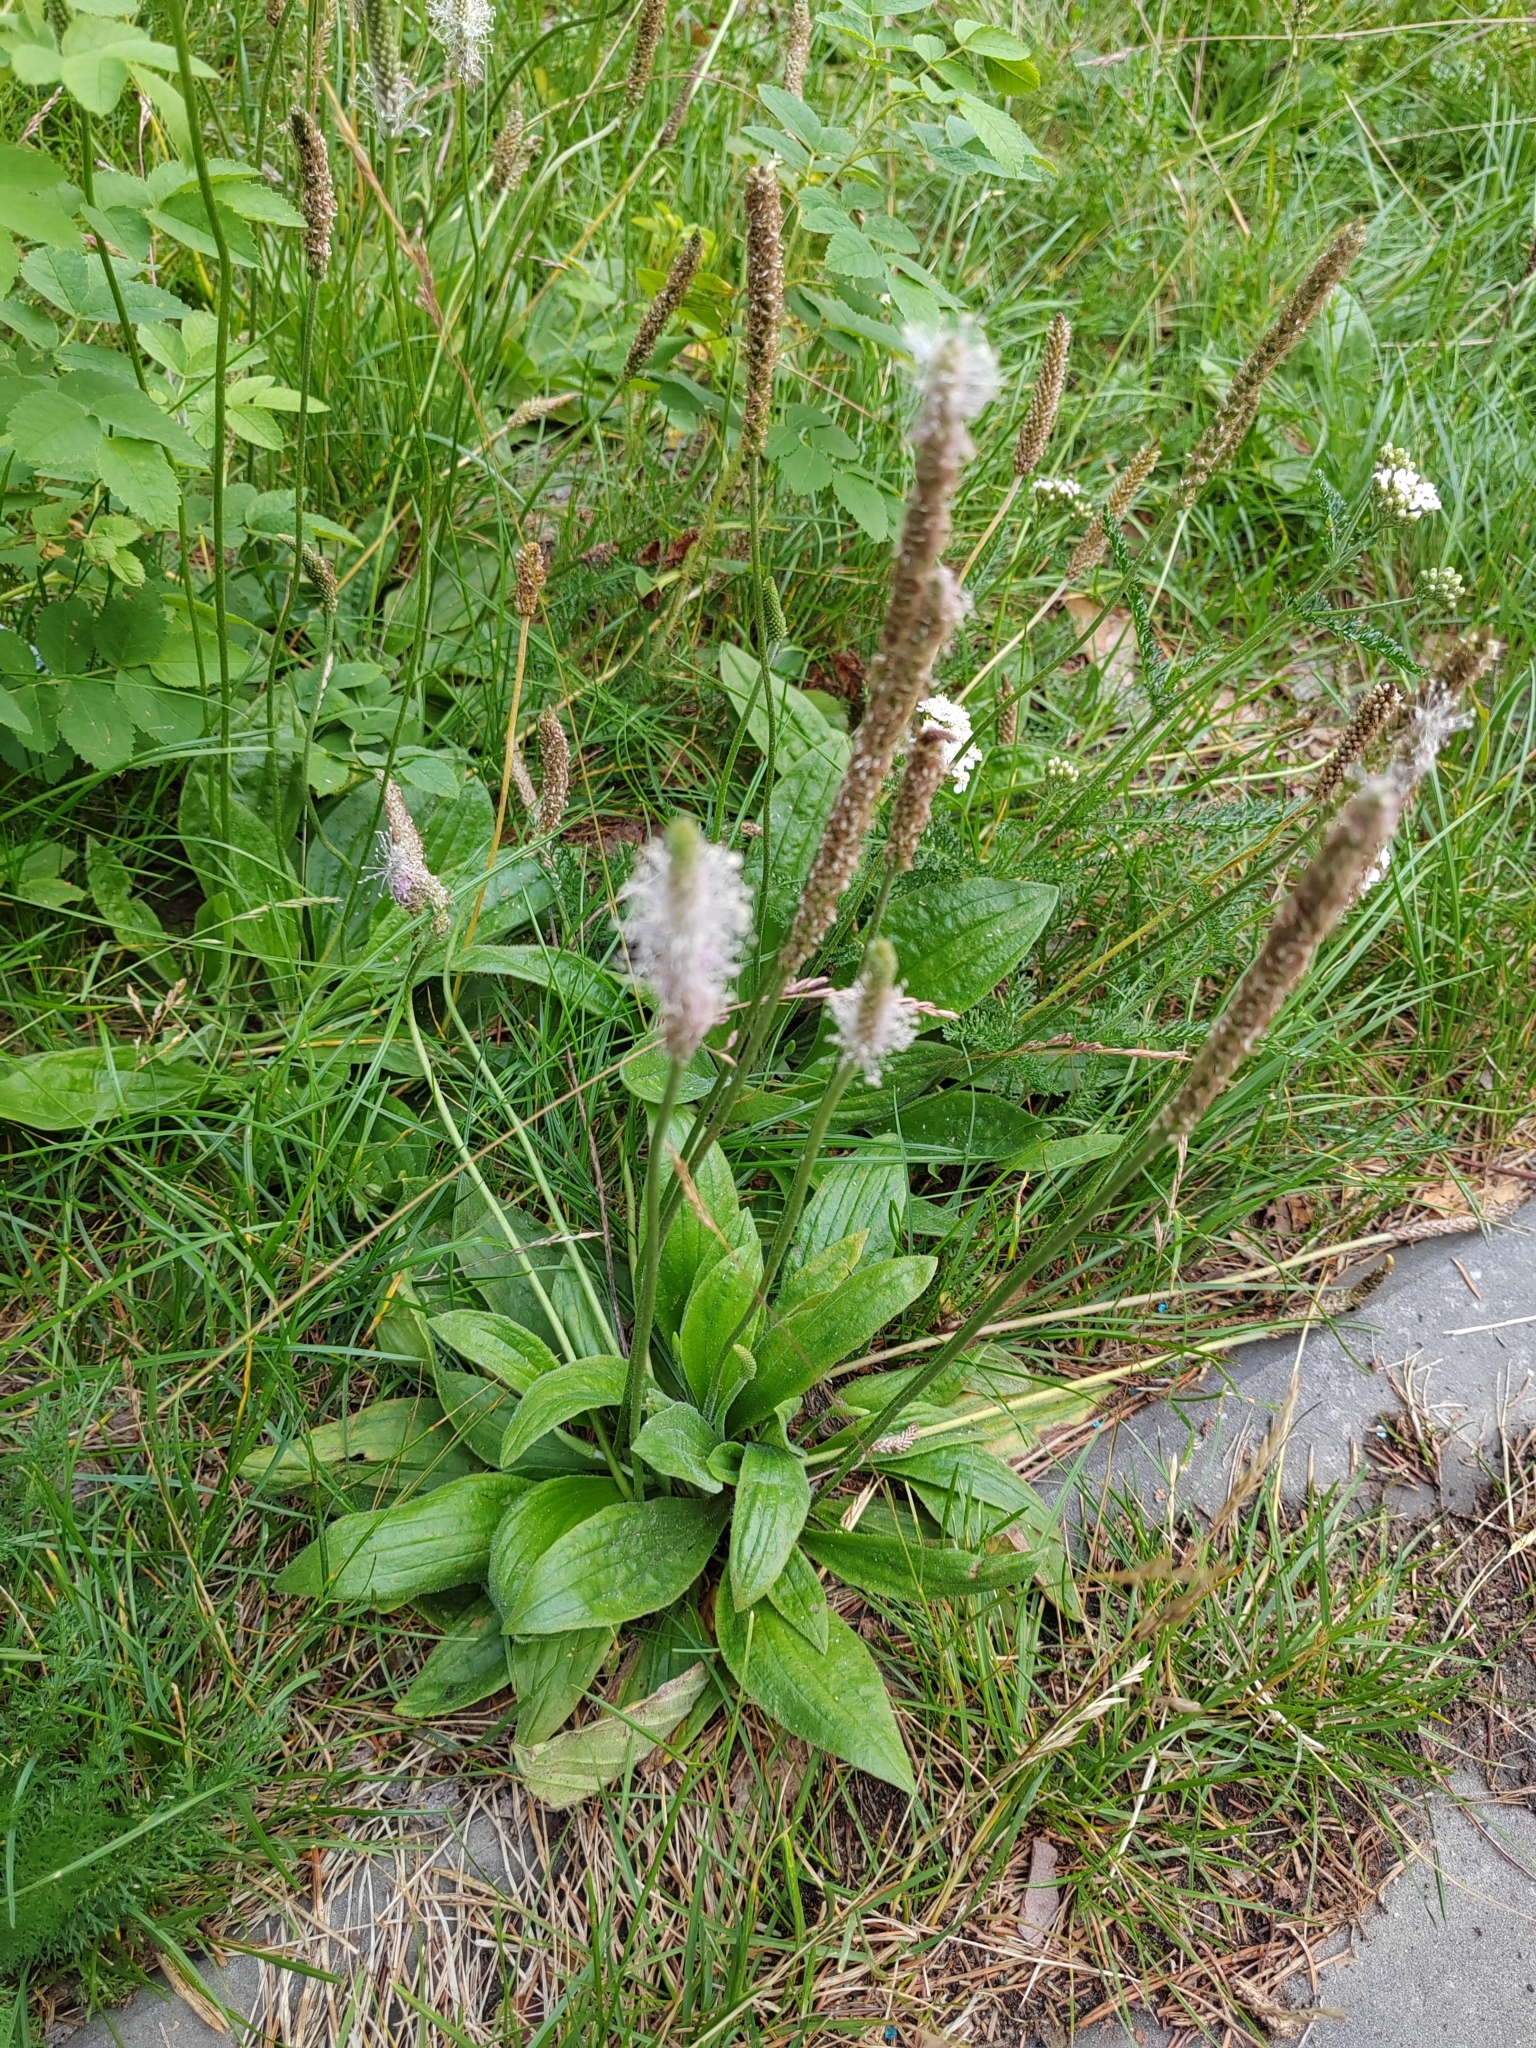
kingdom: Plantae
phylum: Tracheophyta
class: Magnoliopsida
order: Lamiales
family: Plantaginaceae
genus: Plantago
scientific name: Plantago media
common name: Hoary plantain
